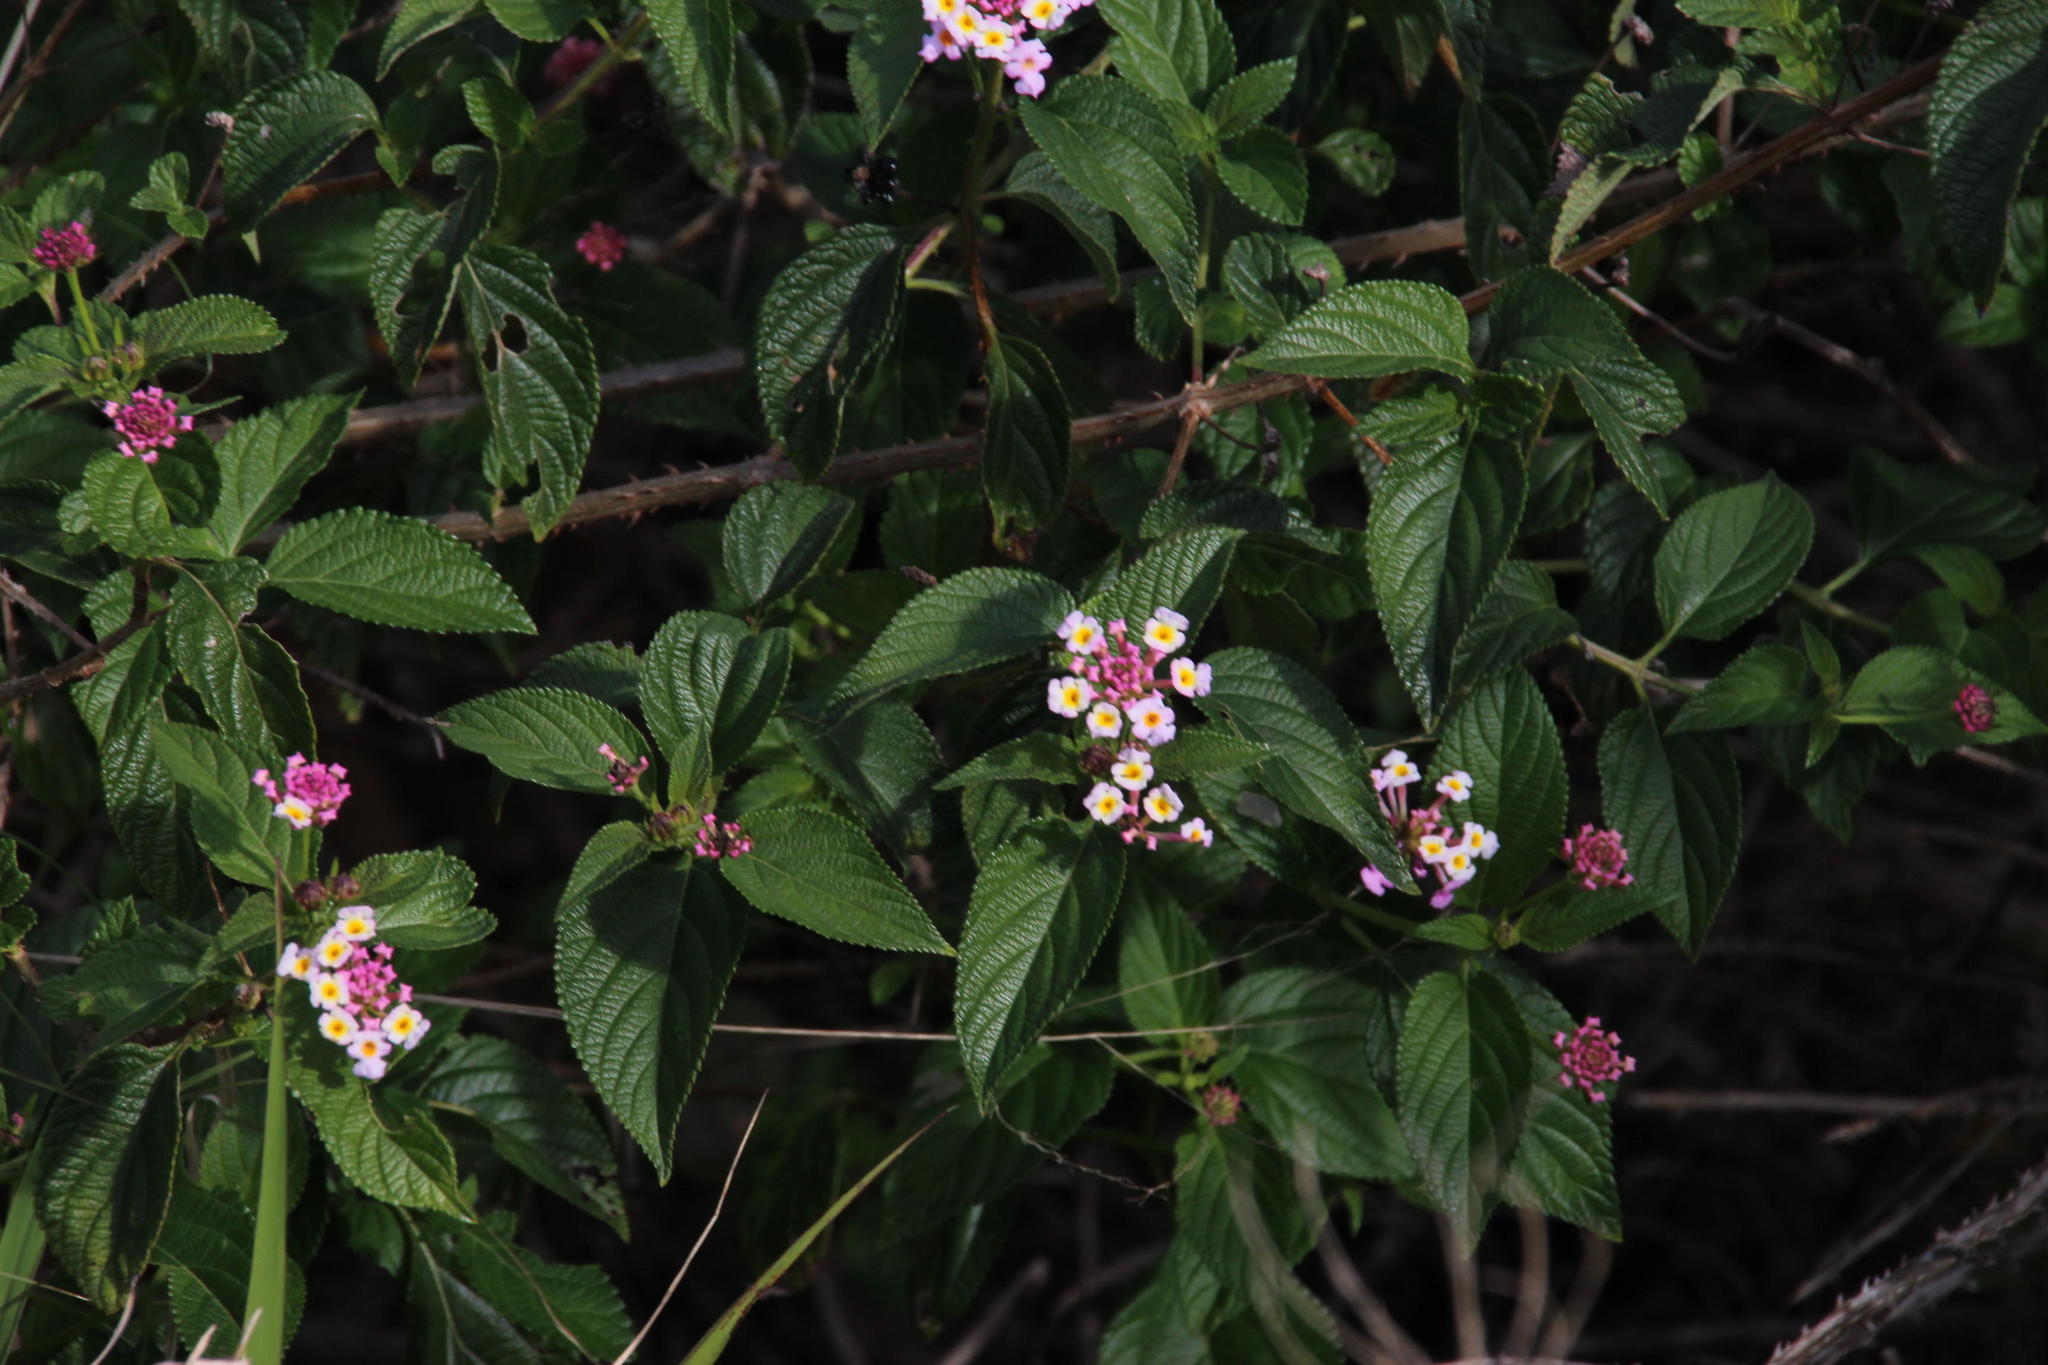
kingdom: Plantae
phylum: Tracheophyta
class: Magnoliopsida
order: Lamiales
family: Verbenaceae
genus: Lantana
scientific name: Lantana camara
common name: Lantana
